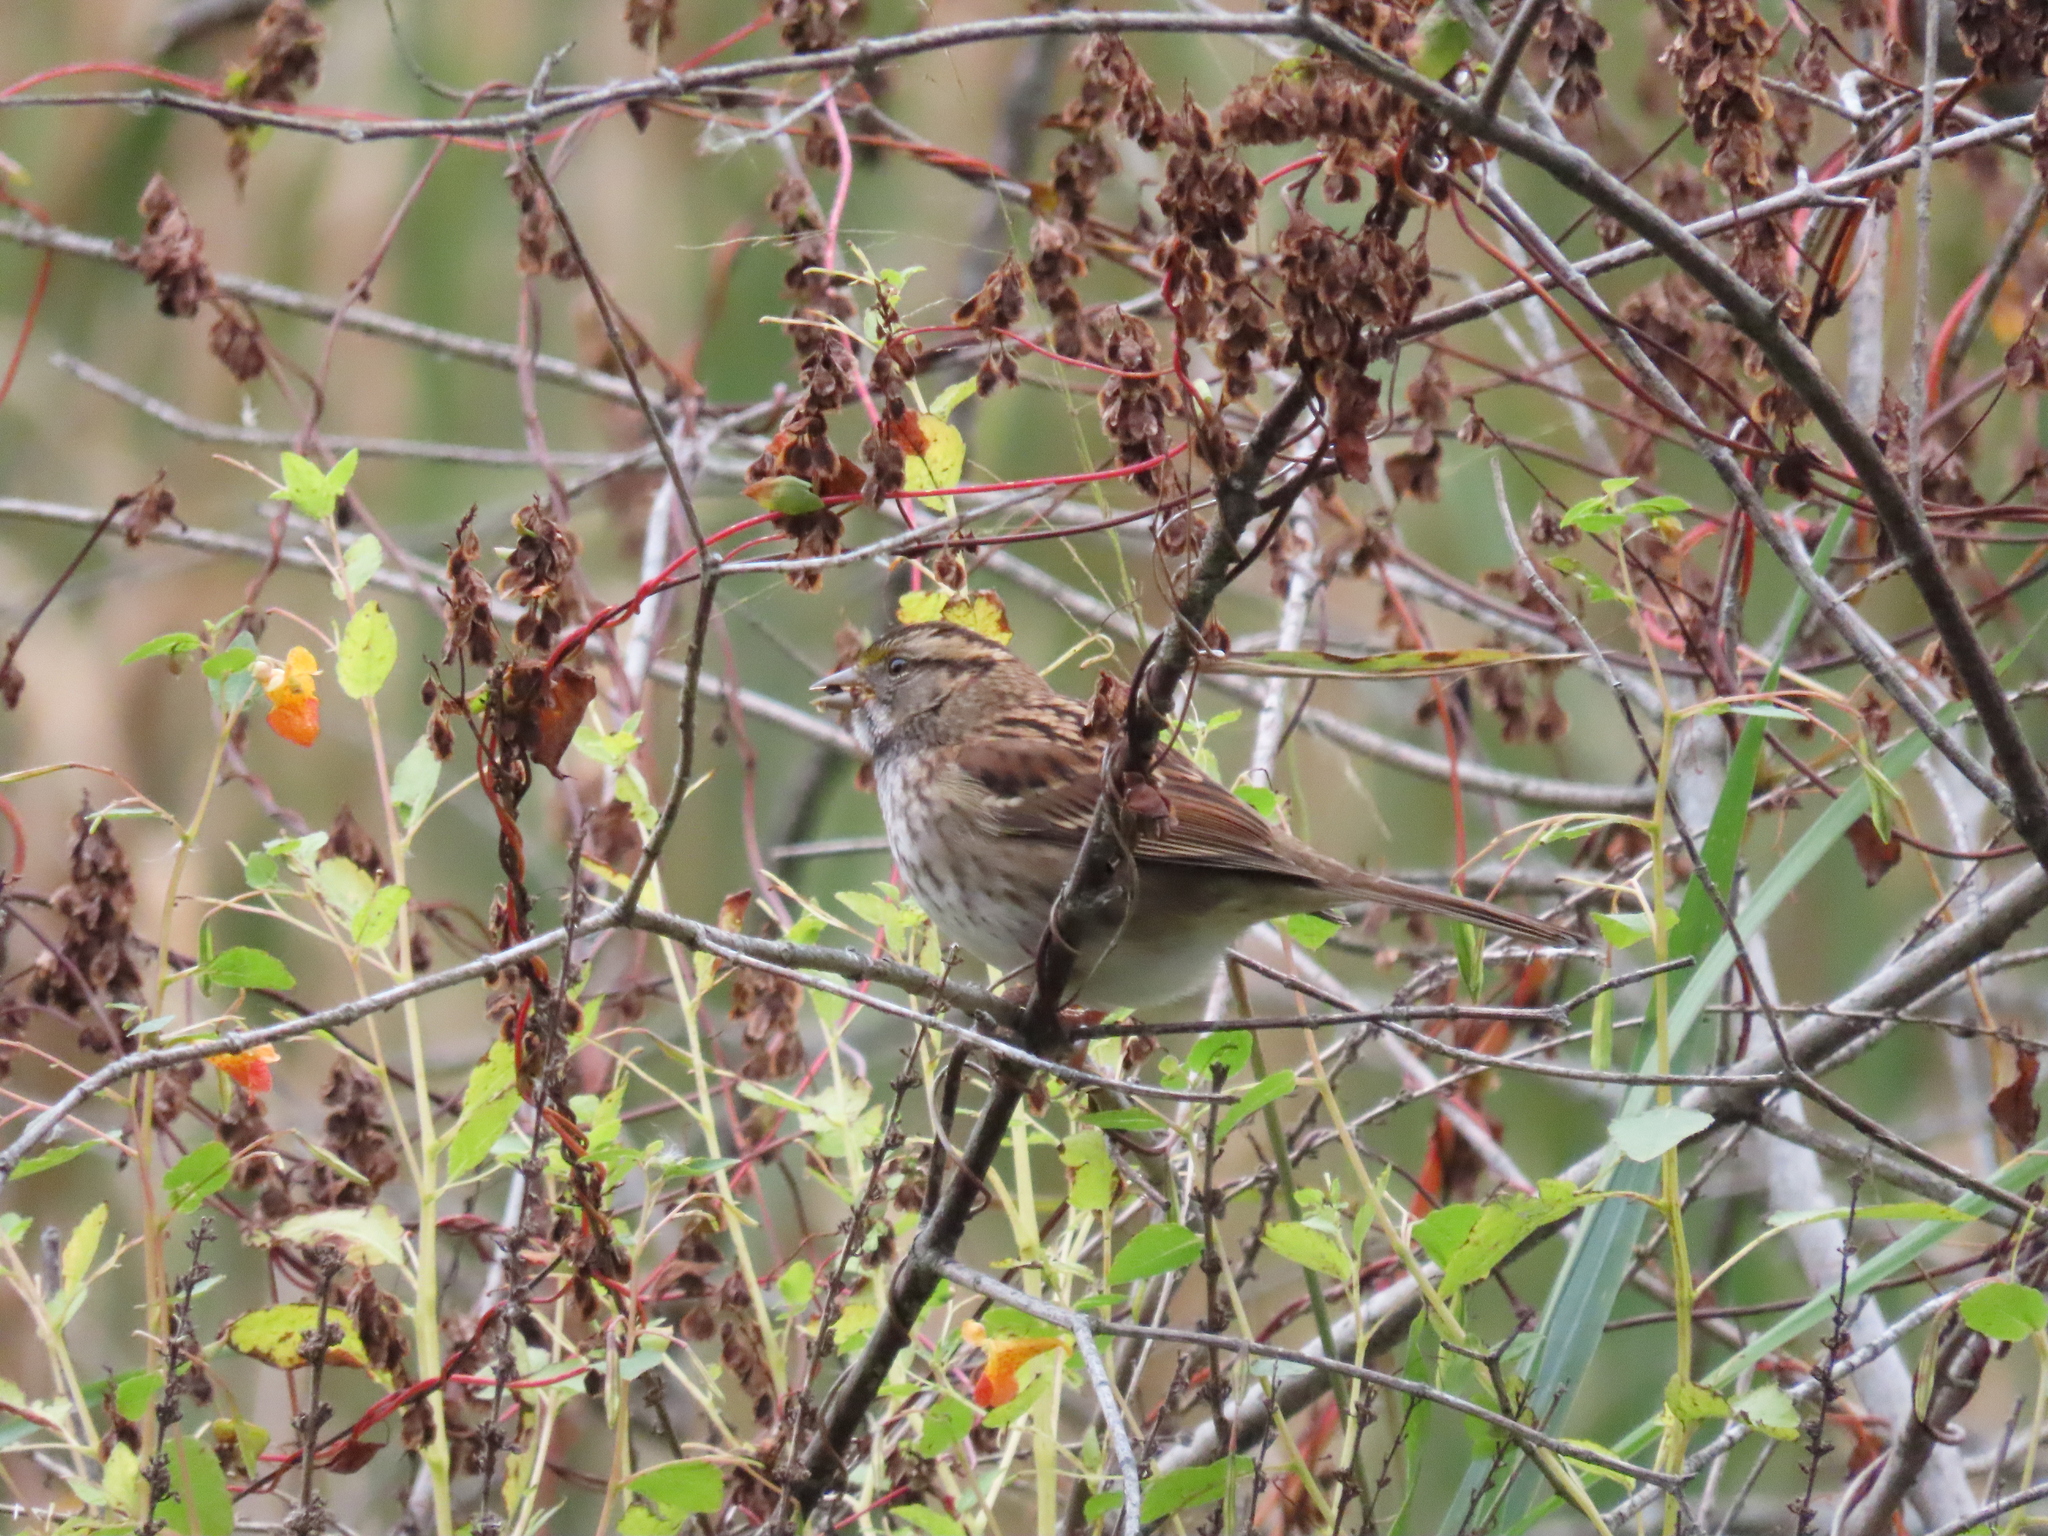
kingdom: Animalia
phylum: Chordata
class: Aves
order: Passeriformes
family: Passerellidae
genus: Zonotrichia
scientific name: Zonotrichia albicollis
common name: White-throated sparrow
